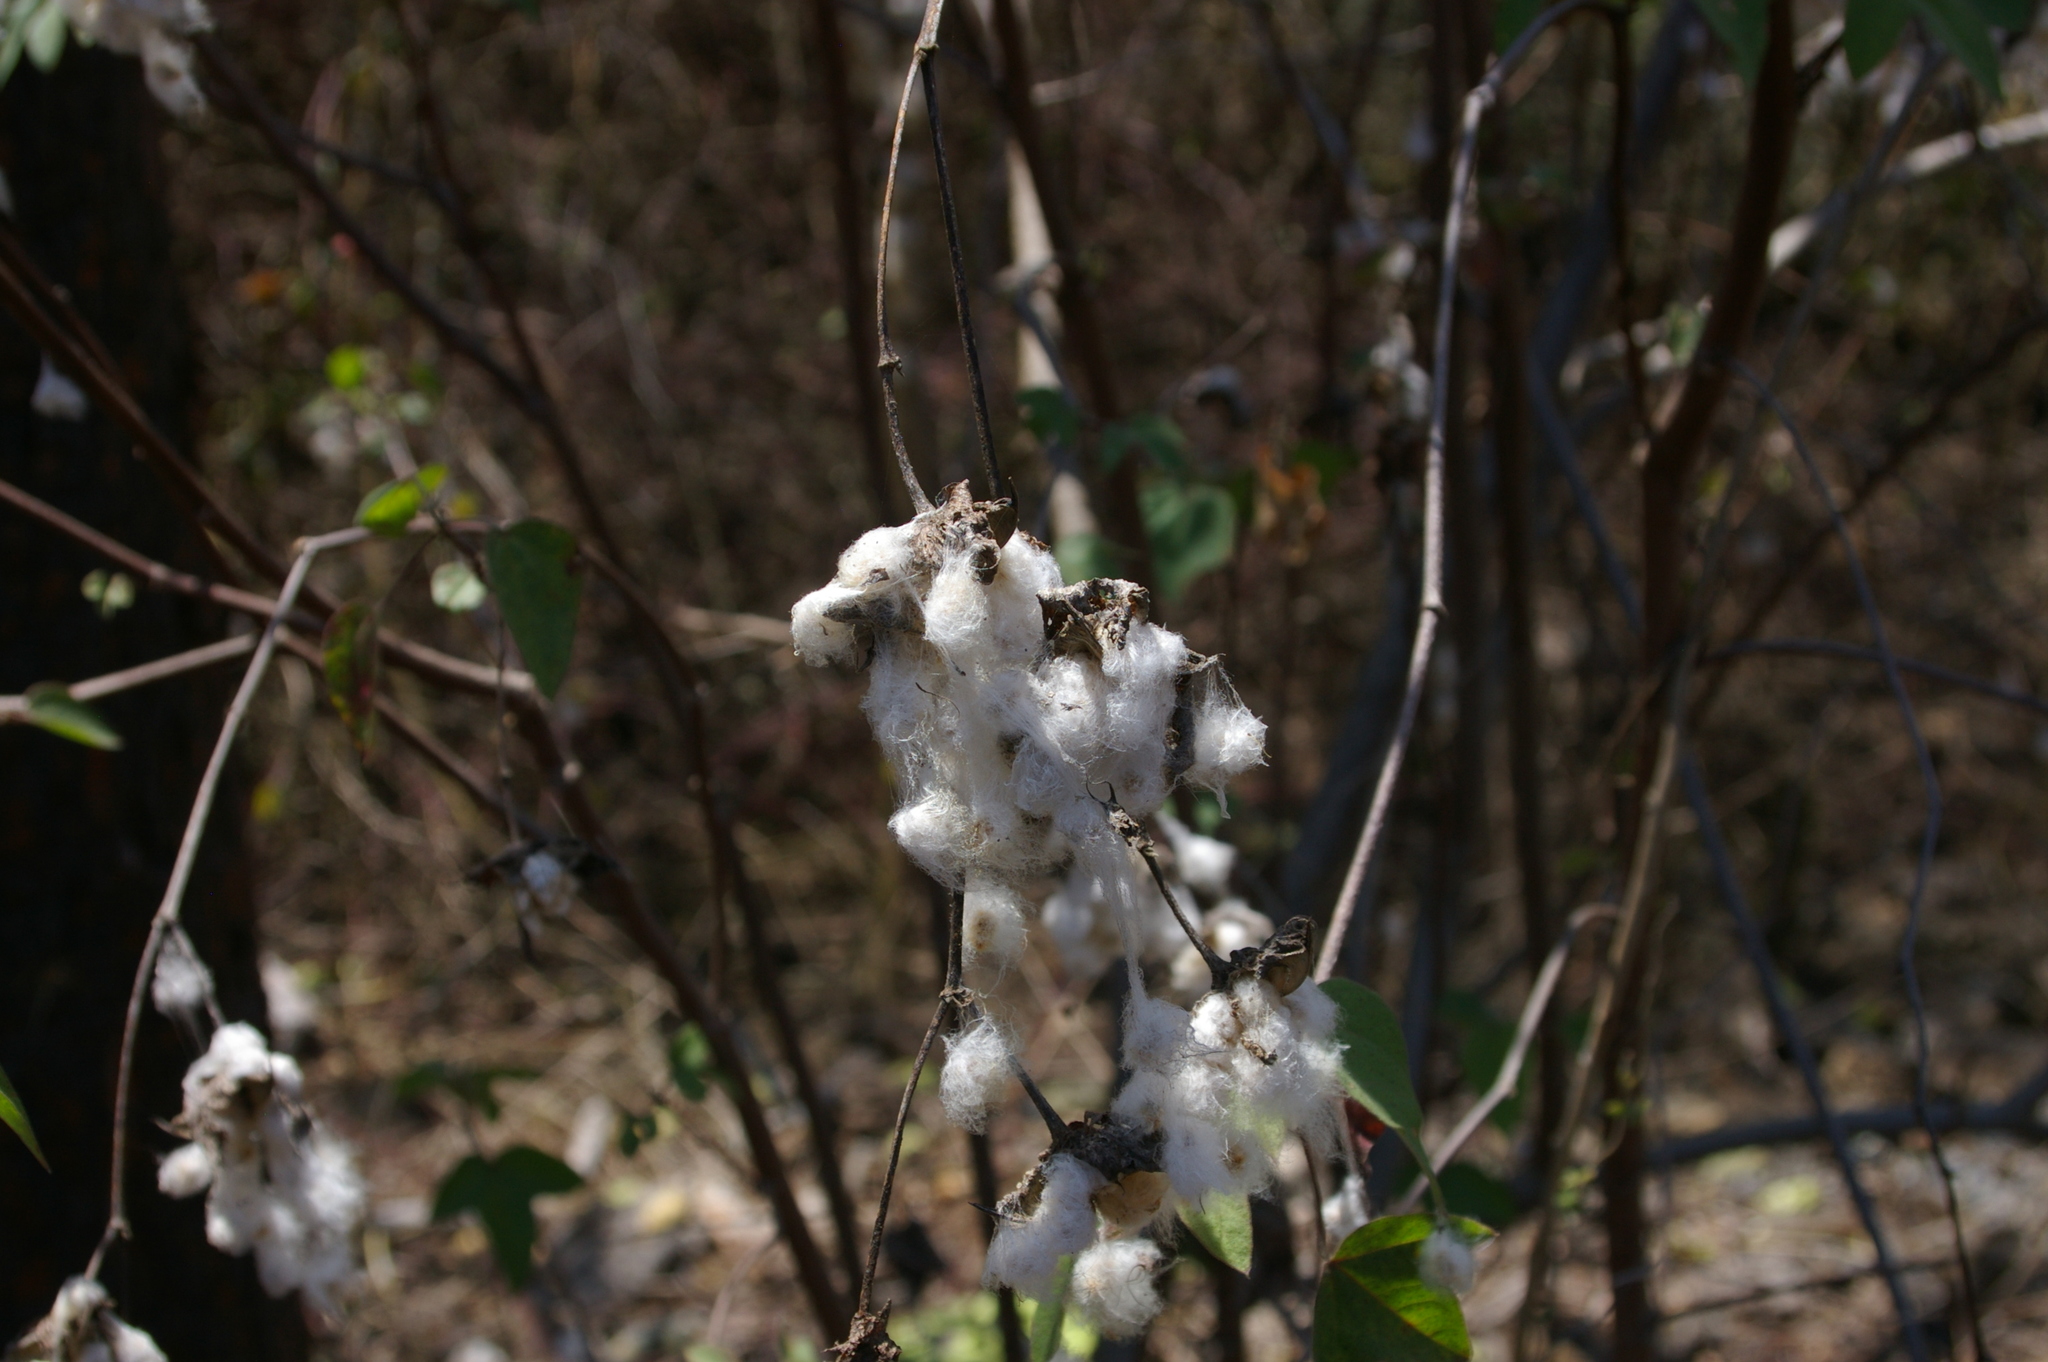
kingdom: Plantae
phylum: Tracheophyta
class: Magnoliopsida
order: Malvales
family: Malvaceae
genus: Gossypium
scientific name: Gossypium darwinii
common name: Darwin's cotton
